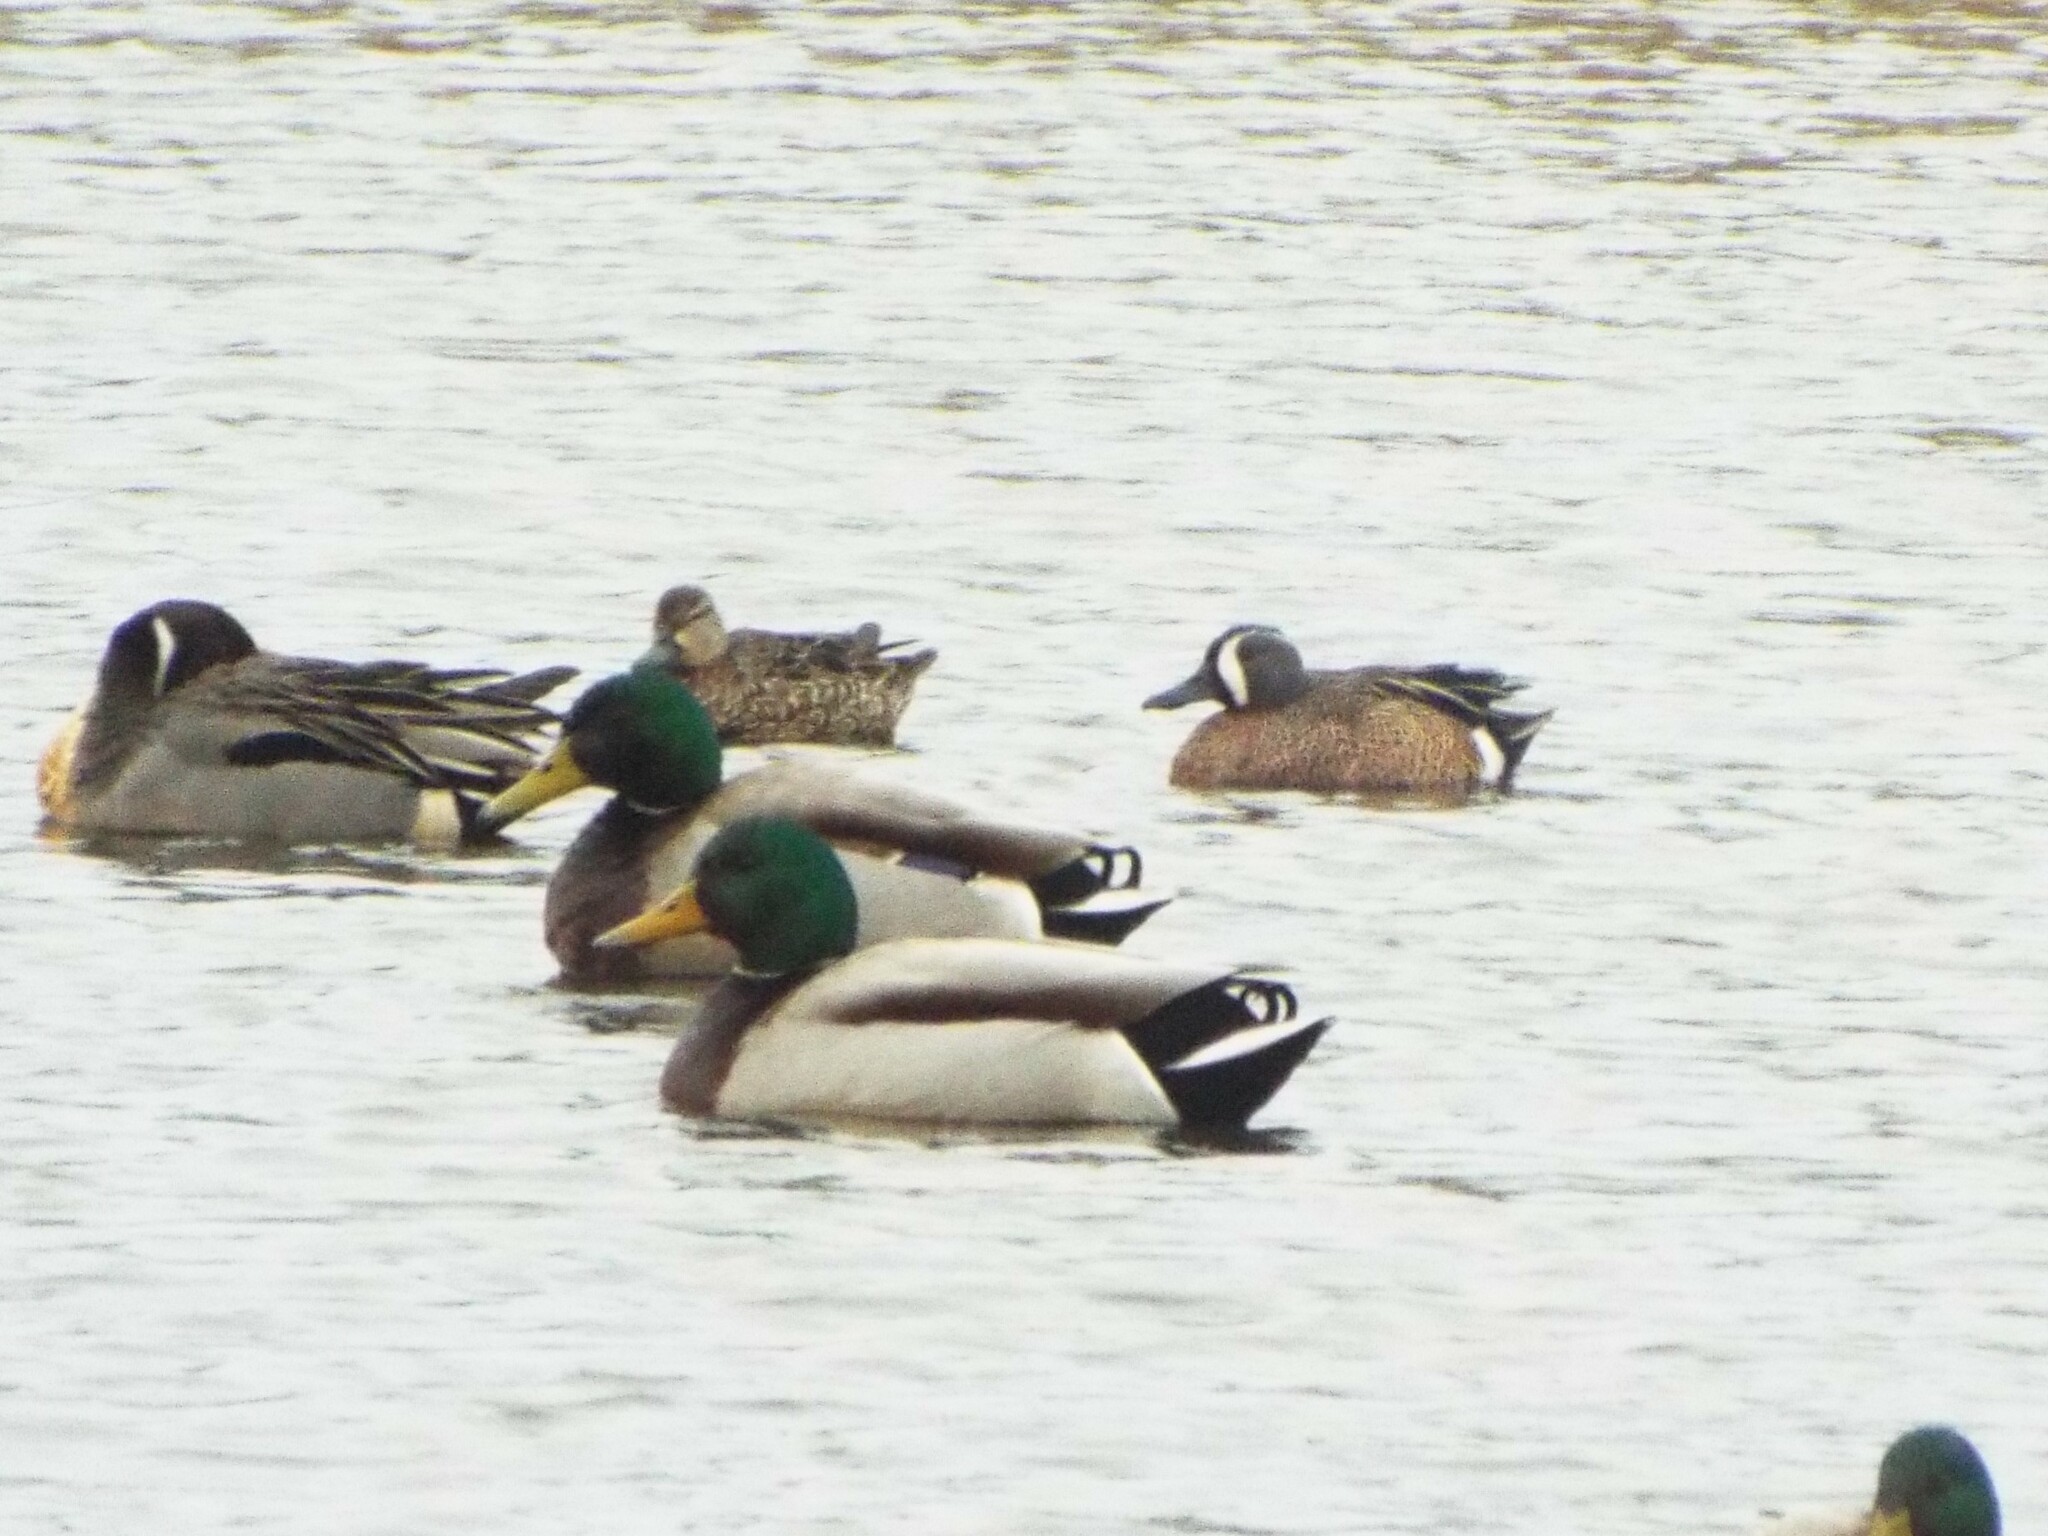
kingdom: Animalia
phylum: Chordata
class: Aves
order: Anseriformes
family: Anatidae
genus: Spatula
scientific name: Spatula discors
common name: Blue-winged teal
